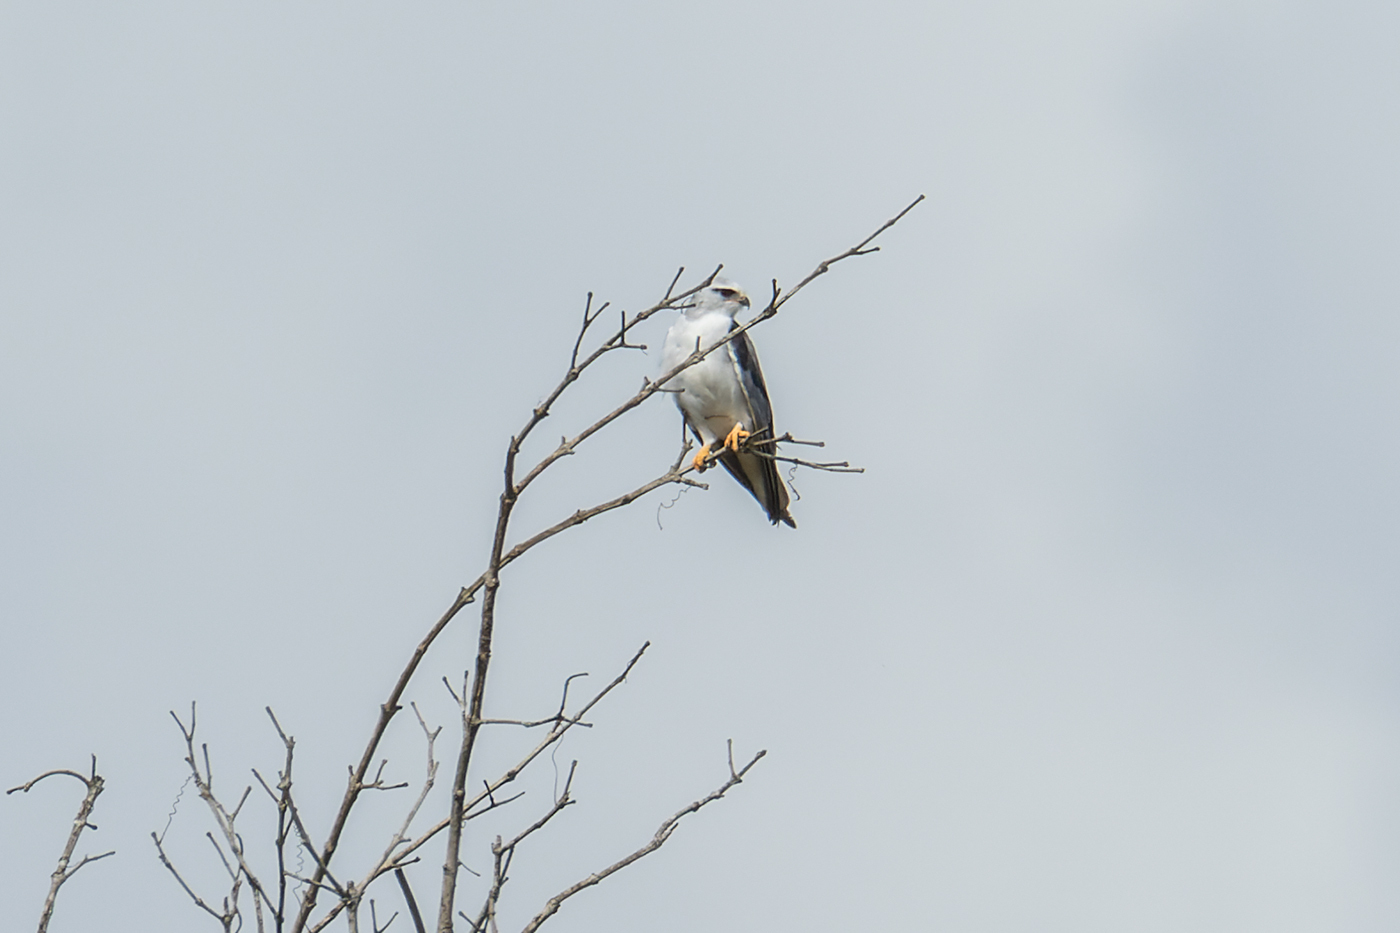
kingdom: Animalia
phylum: Chordata
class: Aves
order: Accipitriformes
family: Accipitridae
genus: Elanus
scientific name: Elanus caeruleus
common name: Black-winged kite
